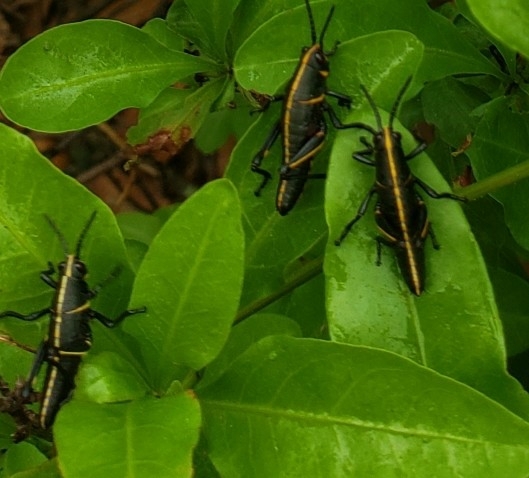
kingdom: Animalia
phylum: Arthropoda
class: Insecta
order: Orthoptera
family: Romaleidae
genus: Romalea
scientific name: Romalea microptera
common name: Eastern lubber grasshopper
